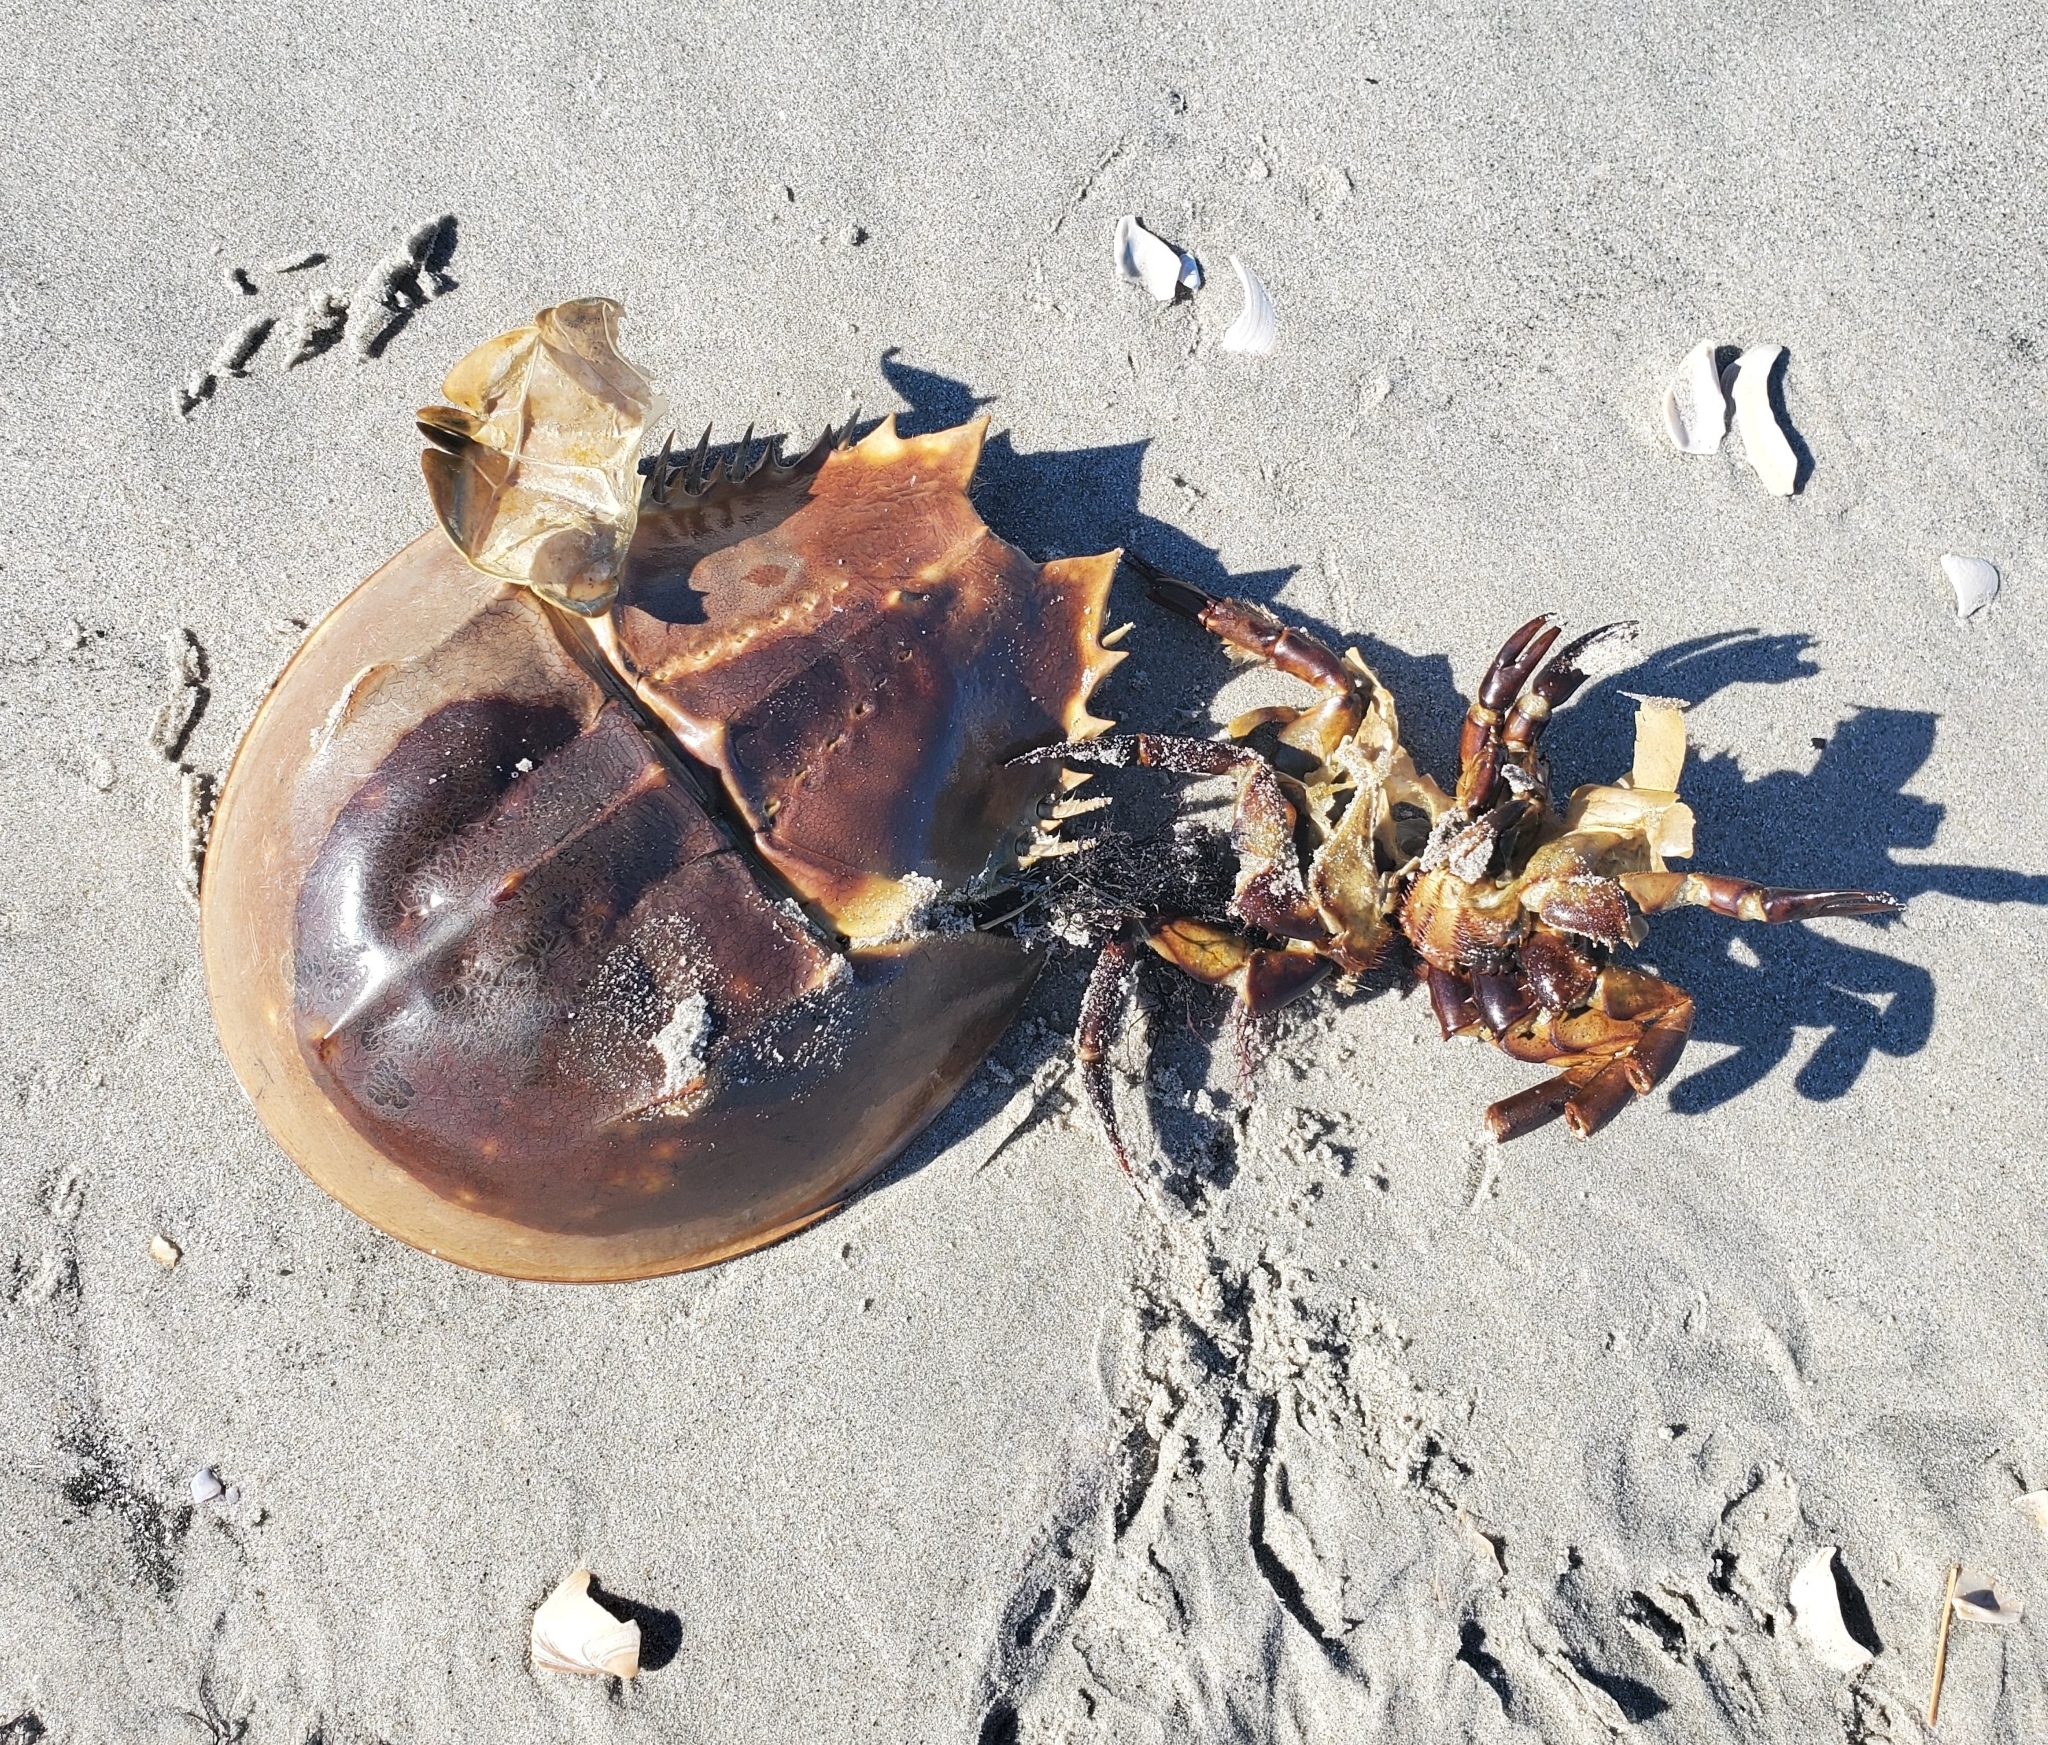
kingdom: Animalia
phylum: Arthropoda
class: Merostomata
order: Xiphosurida
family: Limulidae
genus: Limulus
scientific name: Limulus polyphemus
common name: Horseshoe crab
